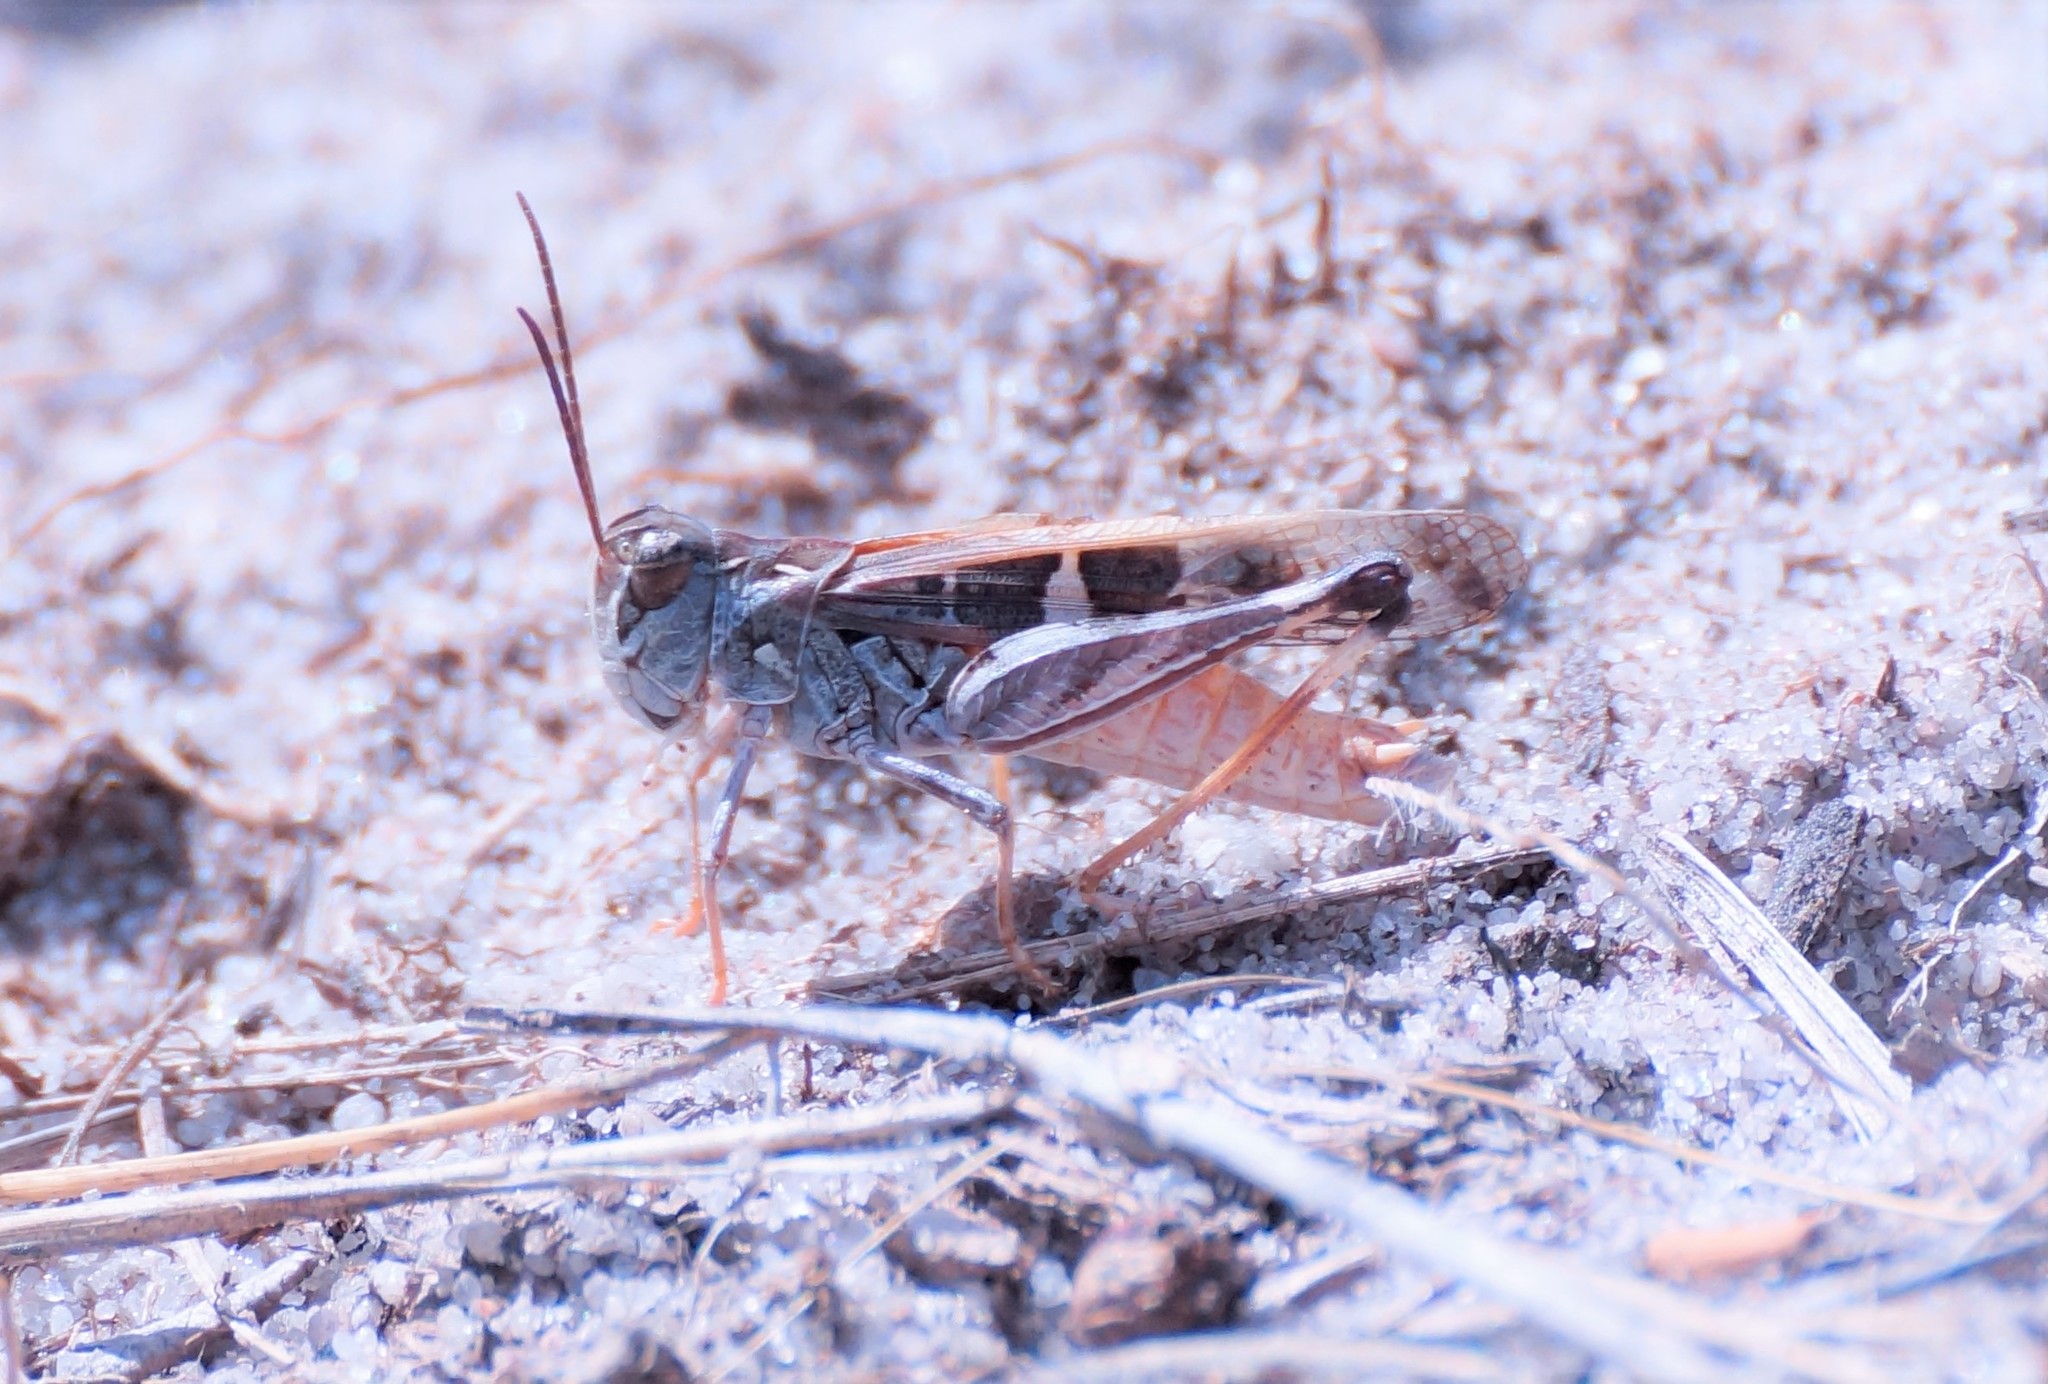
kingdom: Animalia
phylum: Arthropoda
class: Insecta
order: Orthoptera
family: Acrididae
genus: Oedaleus
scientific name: Oedaleus australis
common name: Eastern oedaleus
